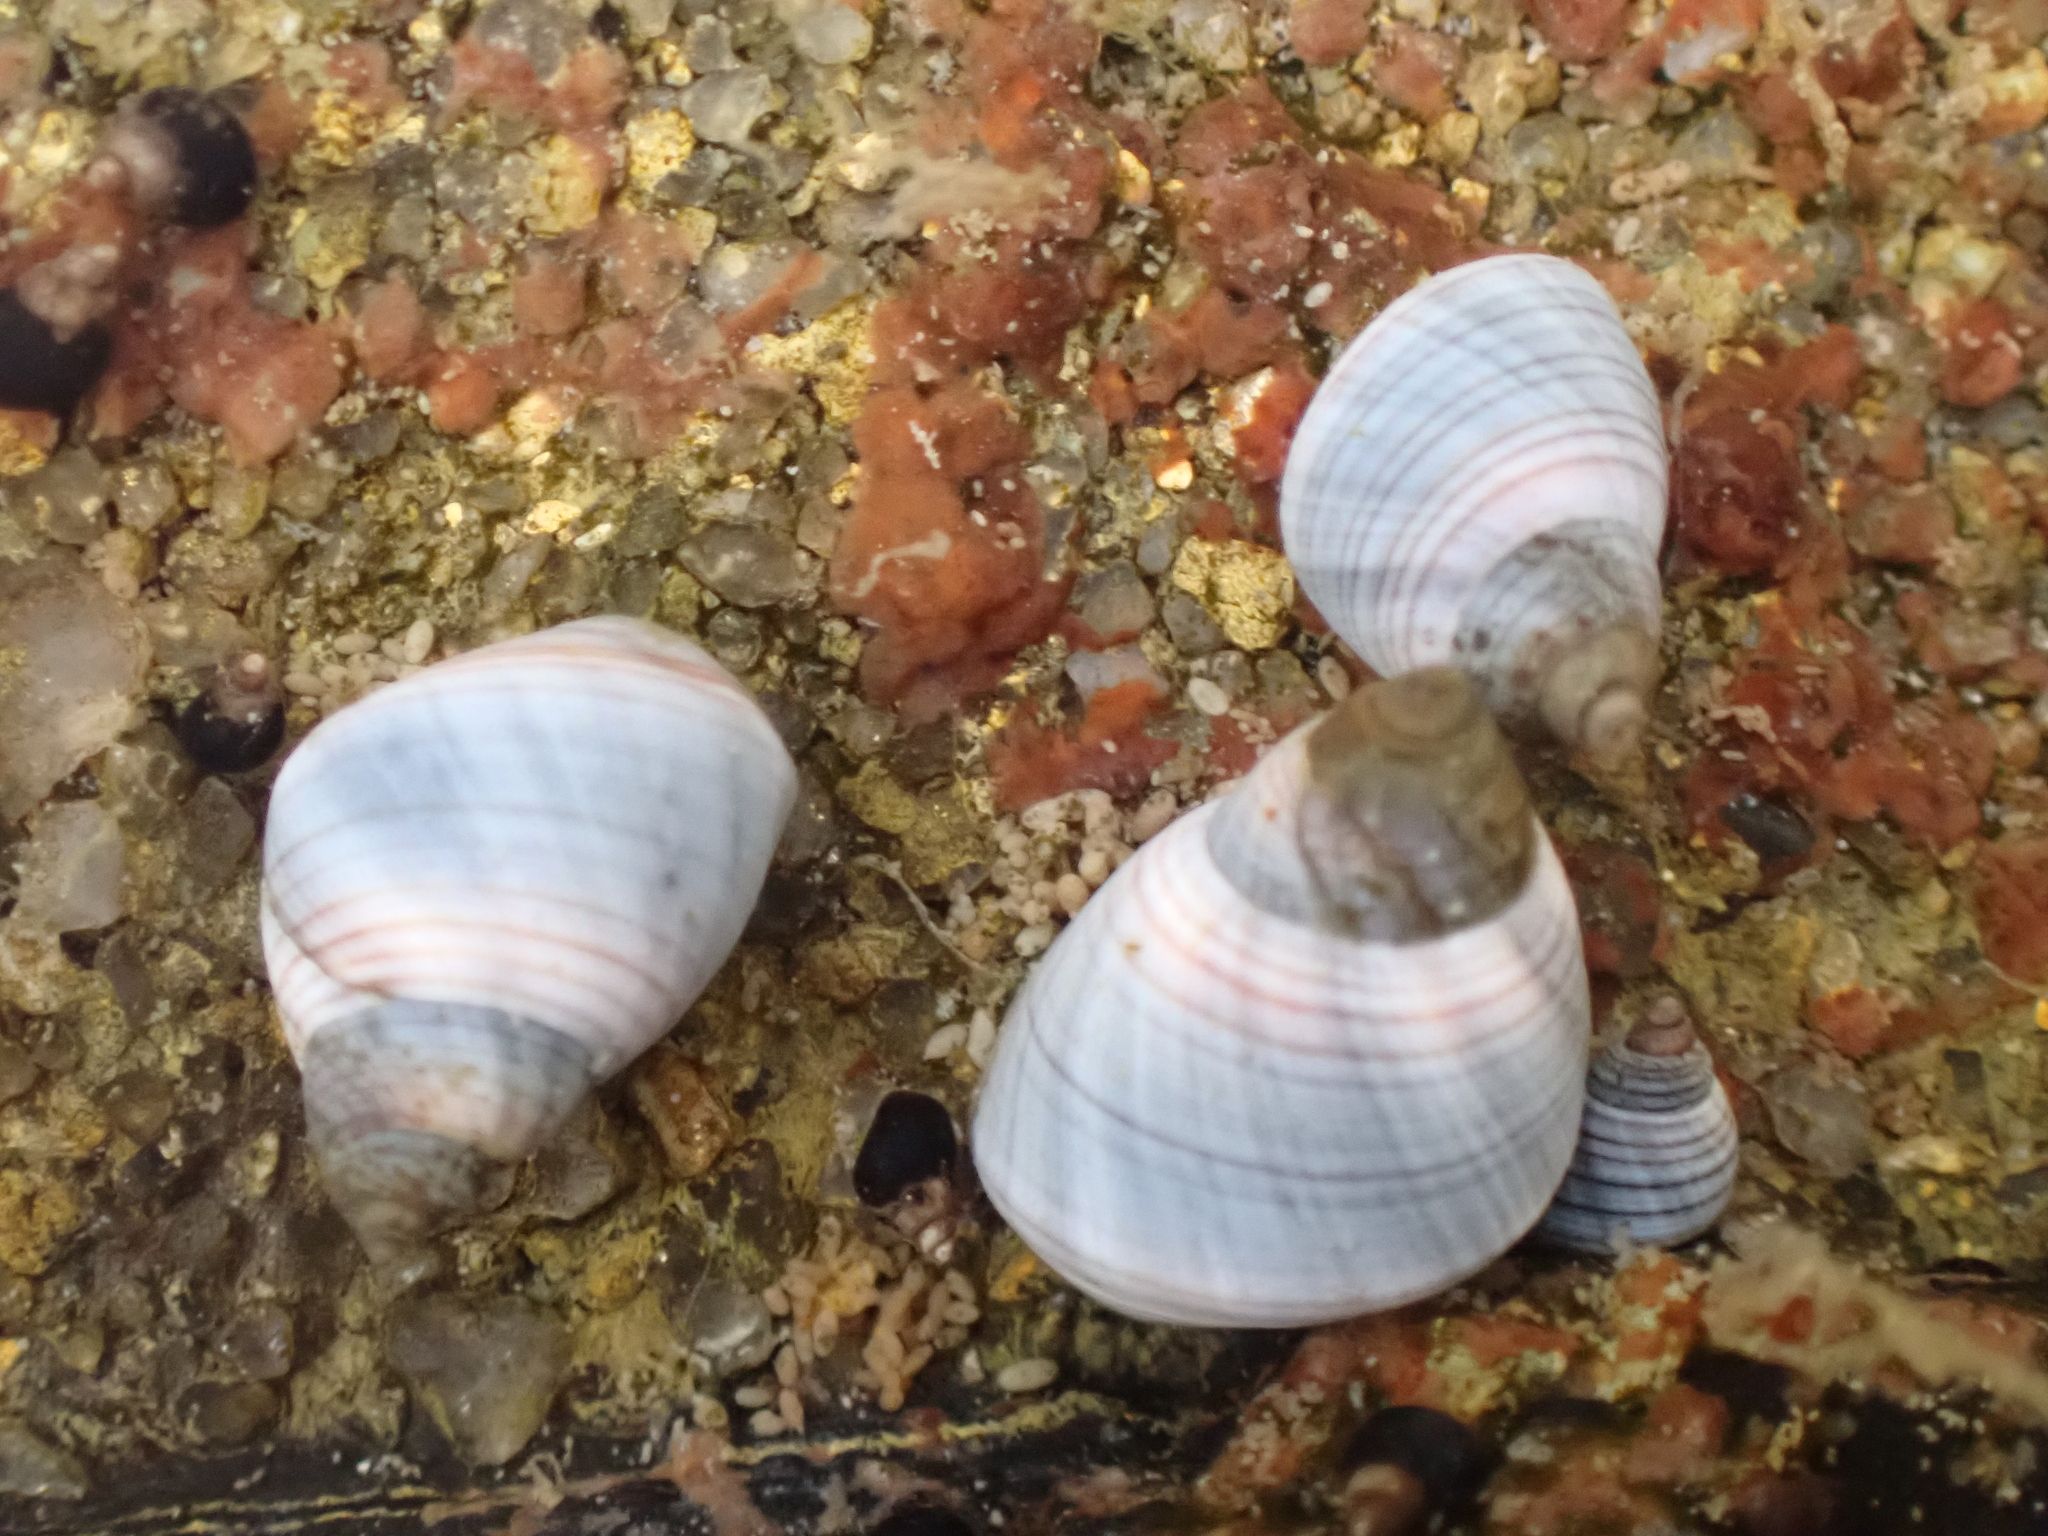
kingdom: Animalia
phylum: Mollusca
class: Gastropoda
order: Littorinimorpha
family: Littorinidae
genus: Austrolittorina
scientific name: Austrolittorina unifasciata
